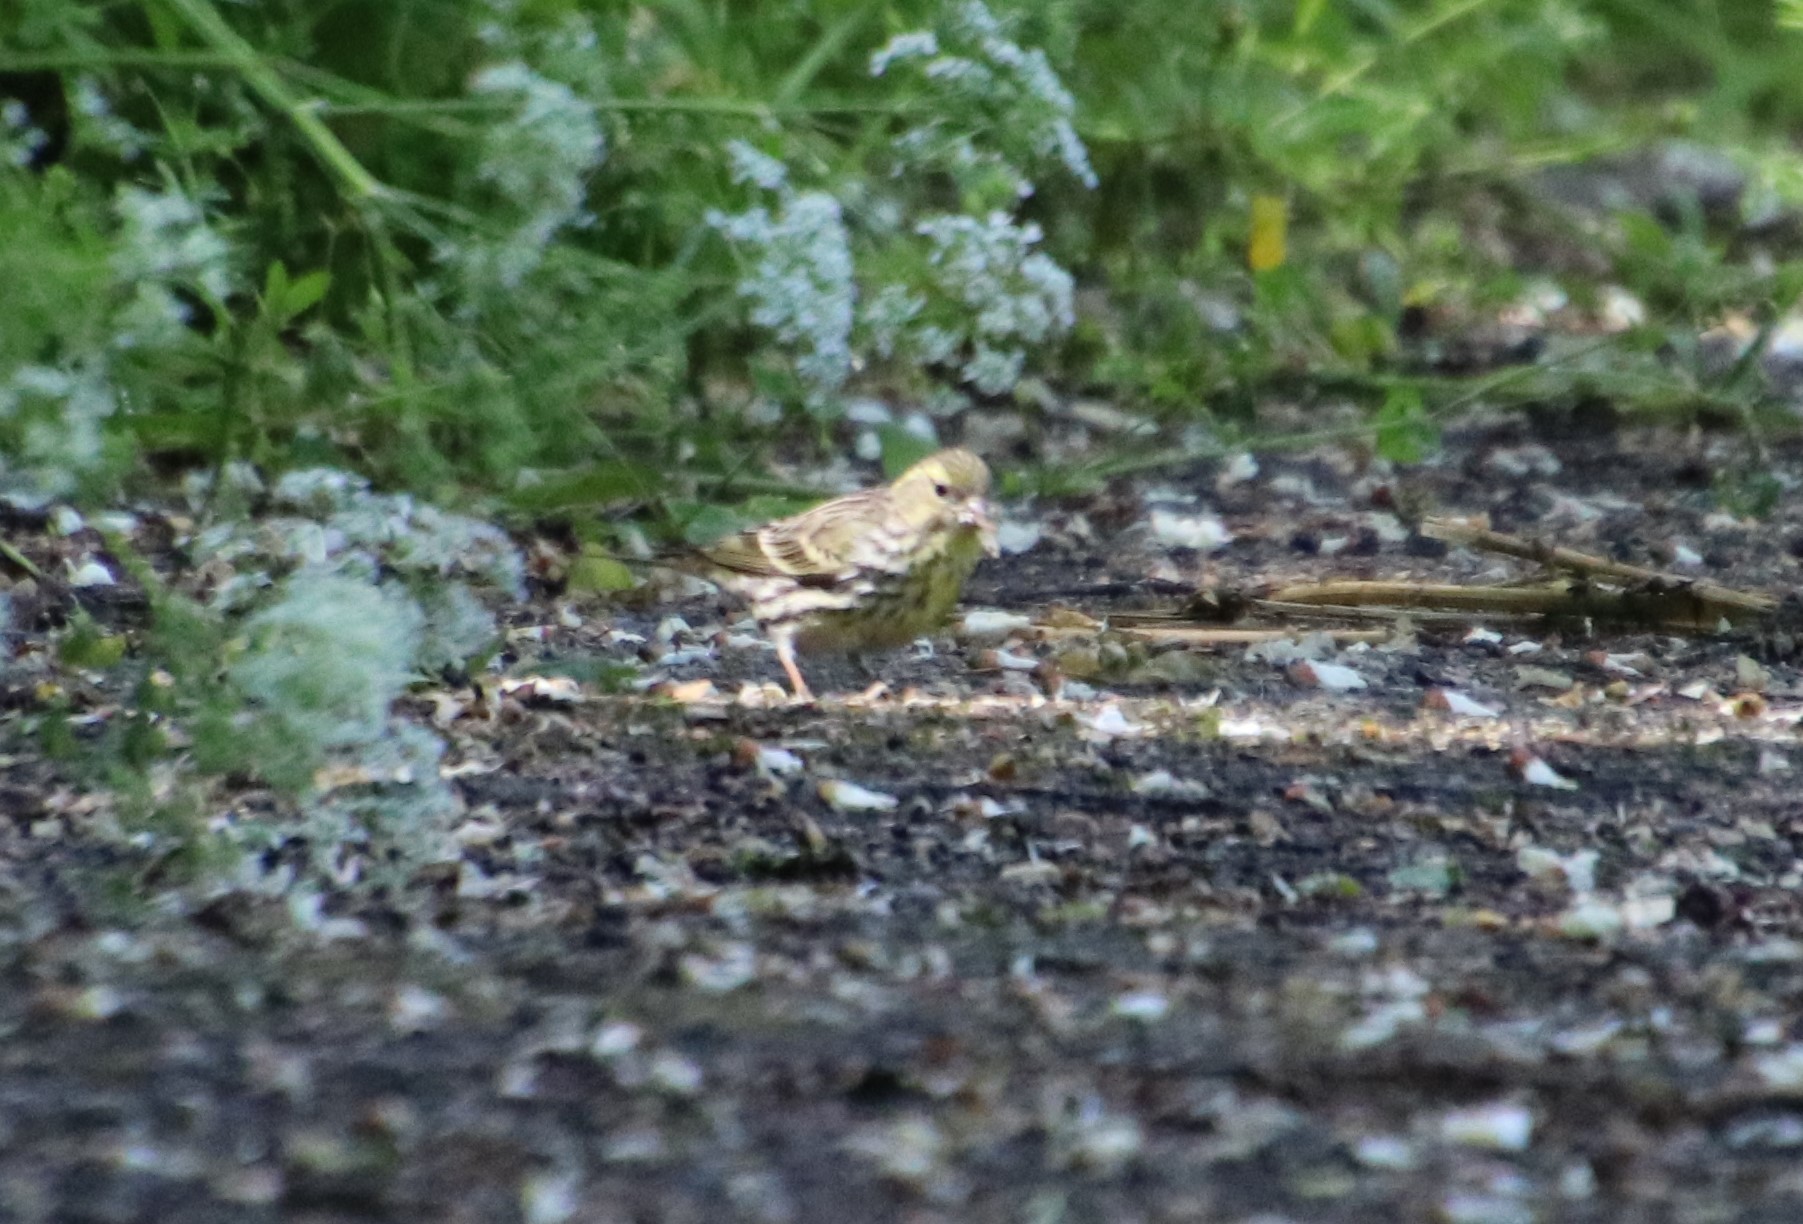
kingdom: Animalia
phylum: Chordata
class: Aves
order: Passeriformes
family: Fringillidae
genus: Serinus
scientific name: Serinus serinus
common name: European serin
